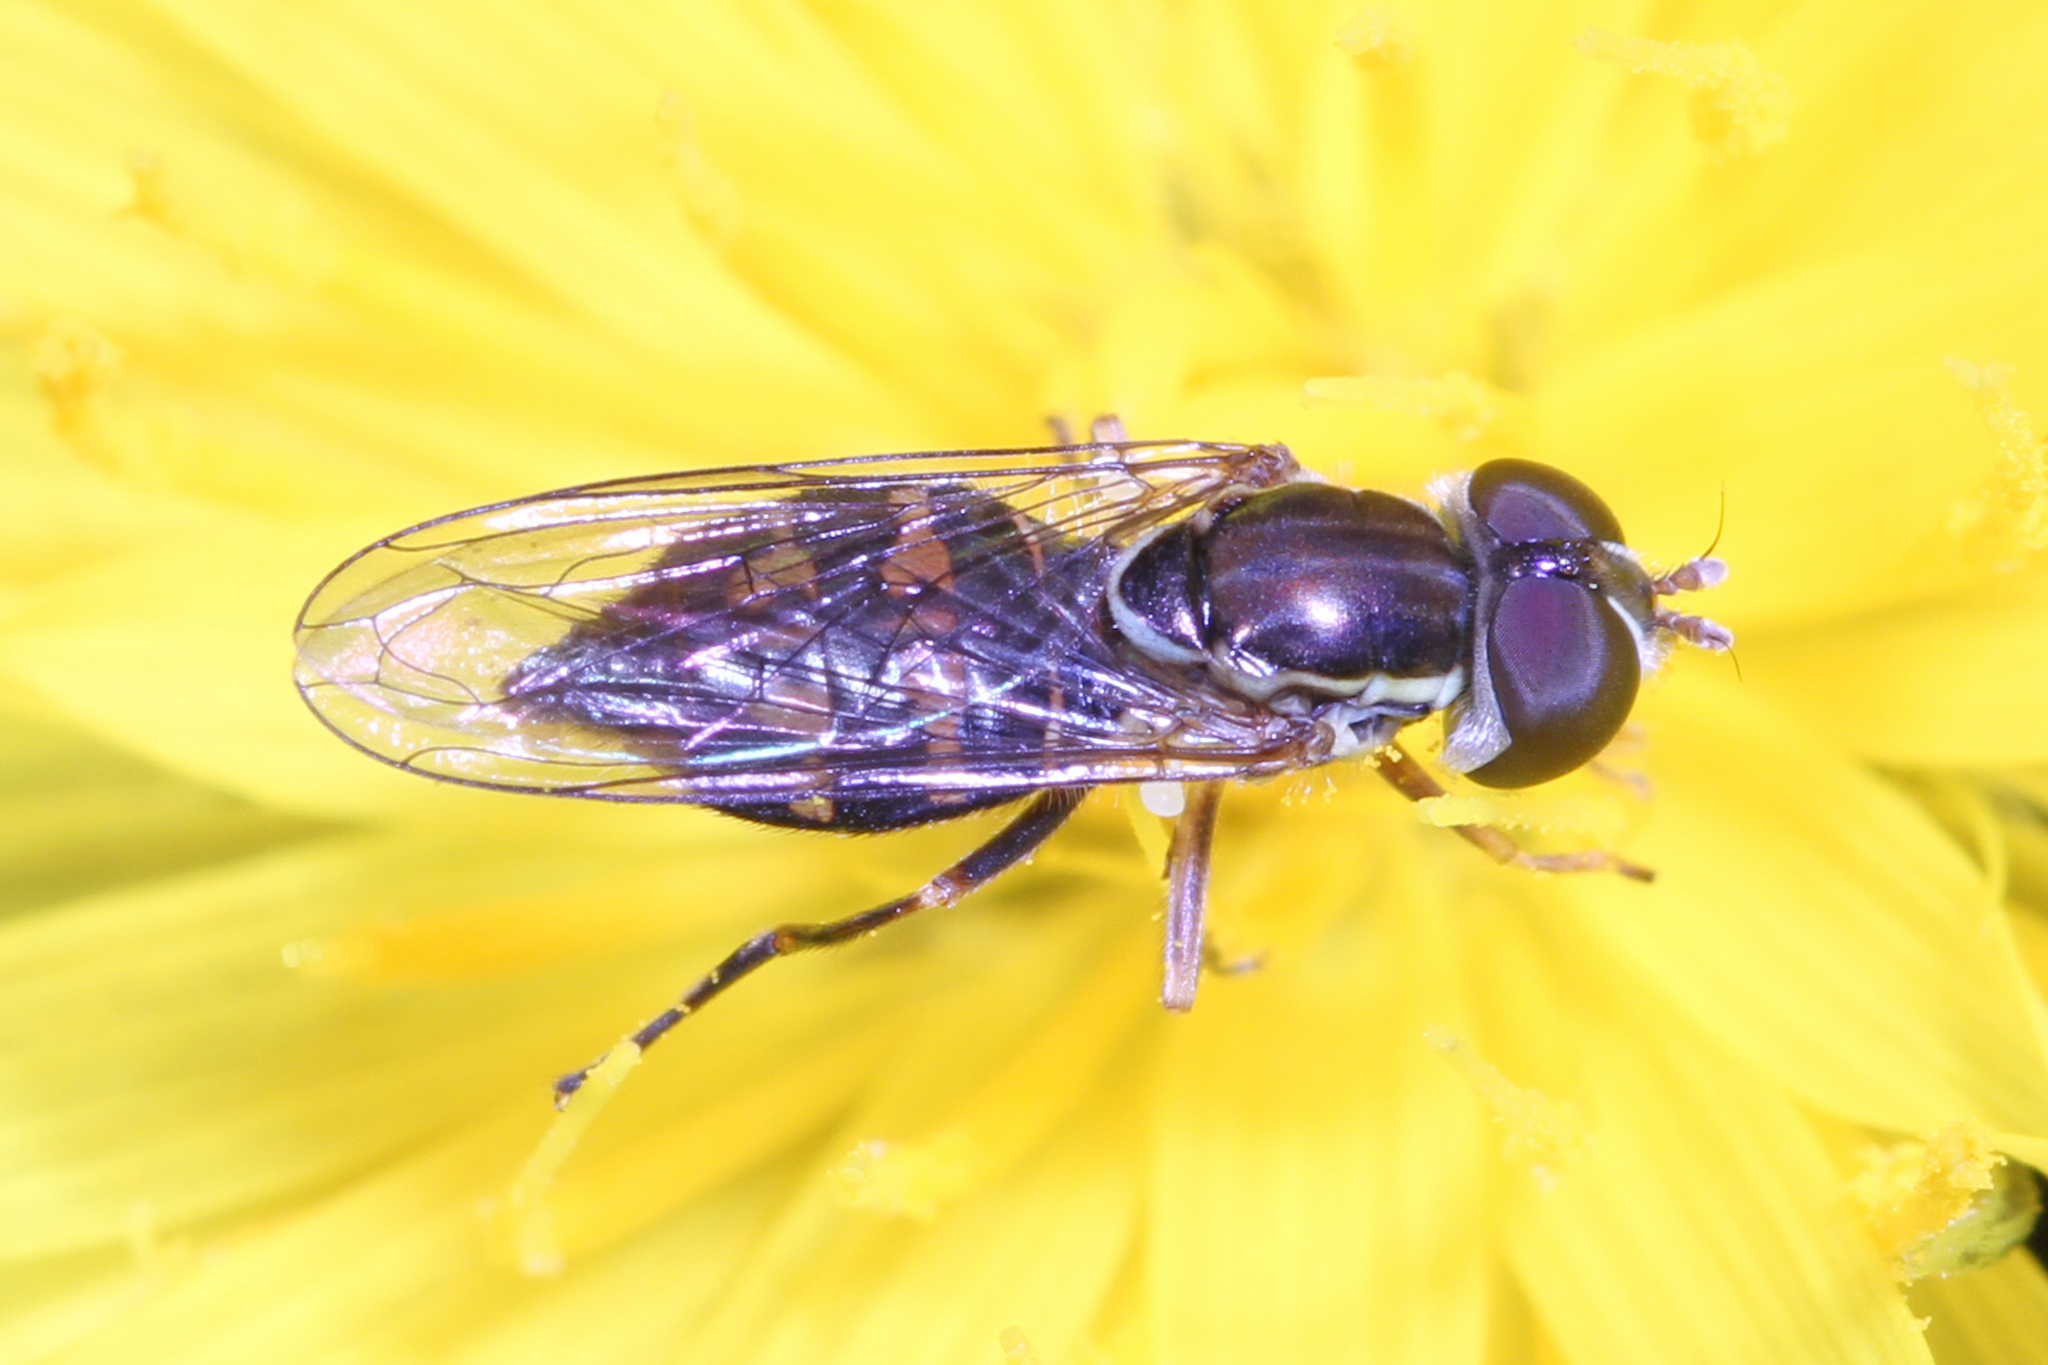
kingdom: Animalia
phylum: Arthropoda
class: Insecta
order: Diptera
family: Syrphidae
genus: Toxomerus
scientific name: Toxomerus occidentalis
